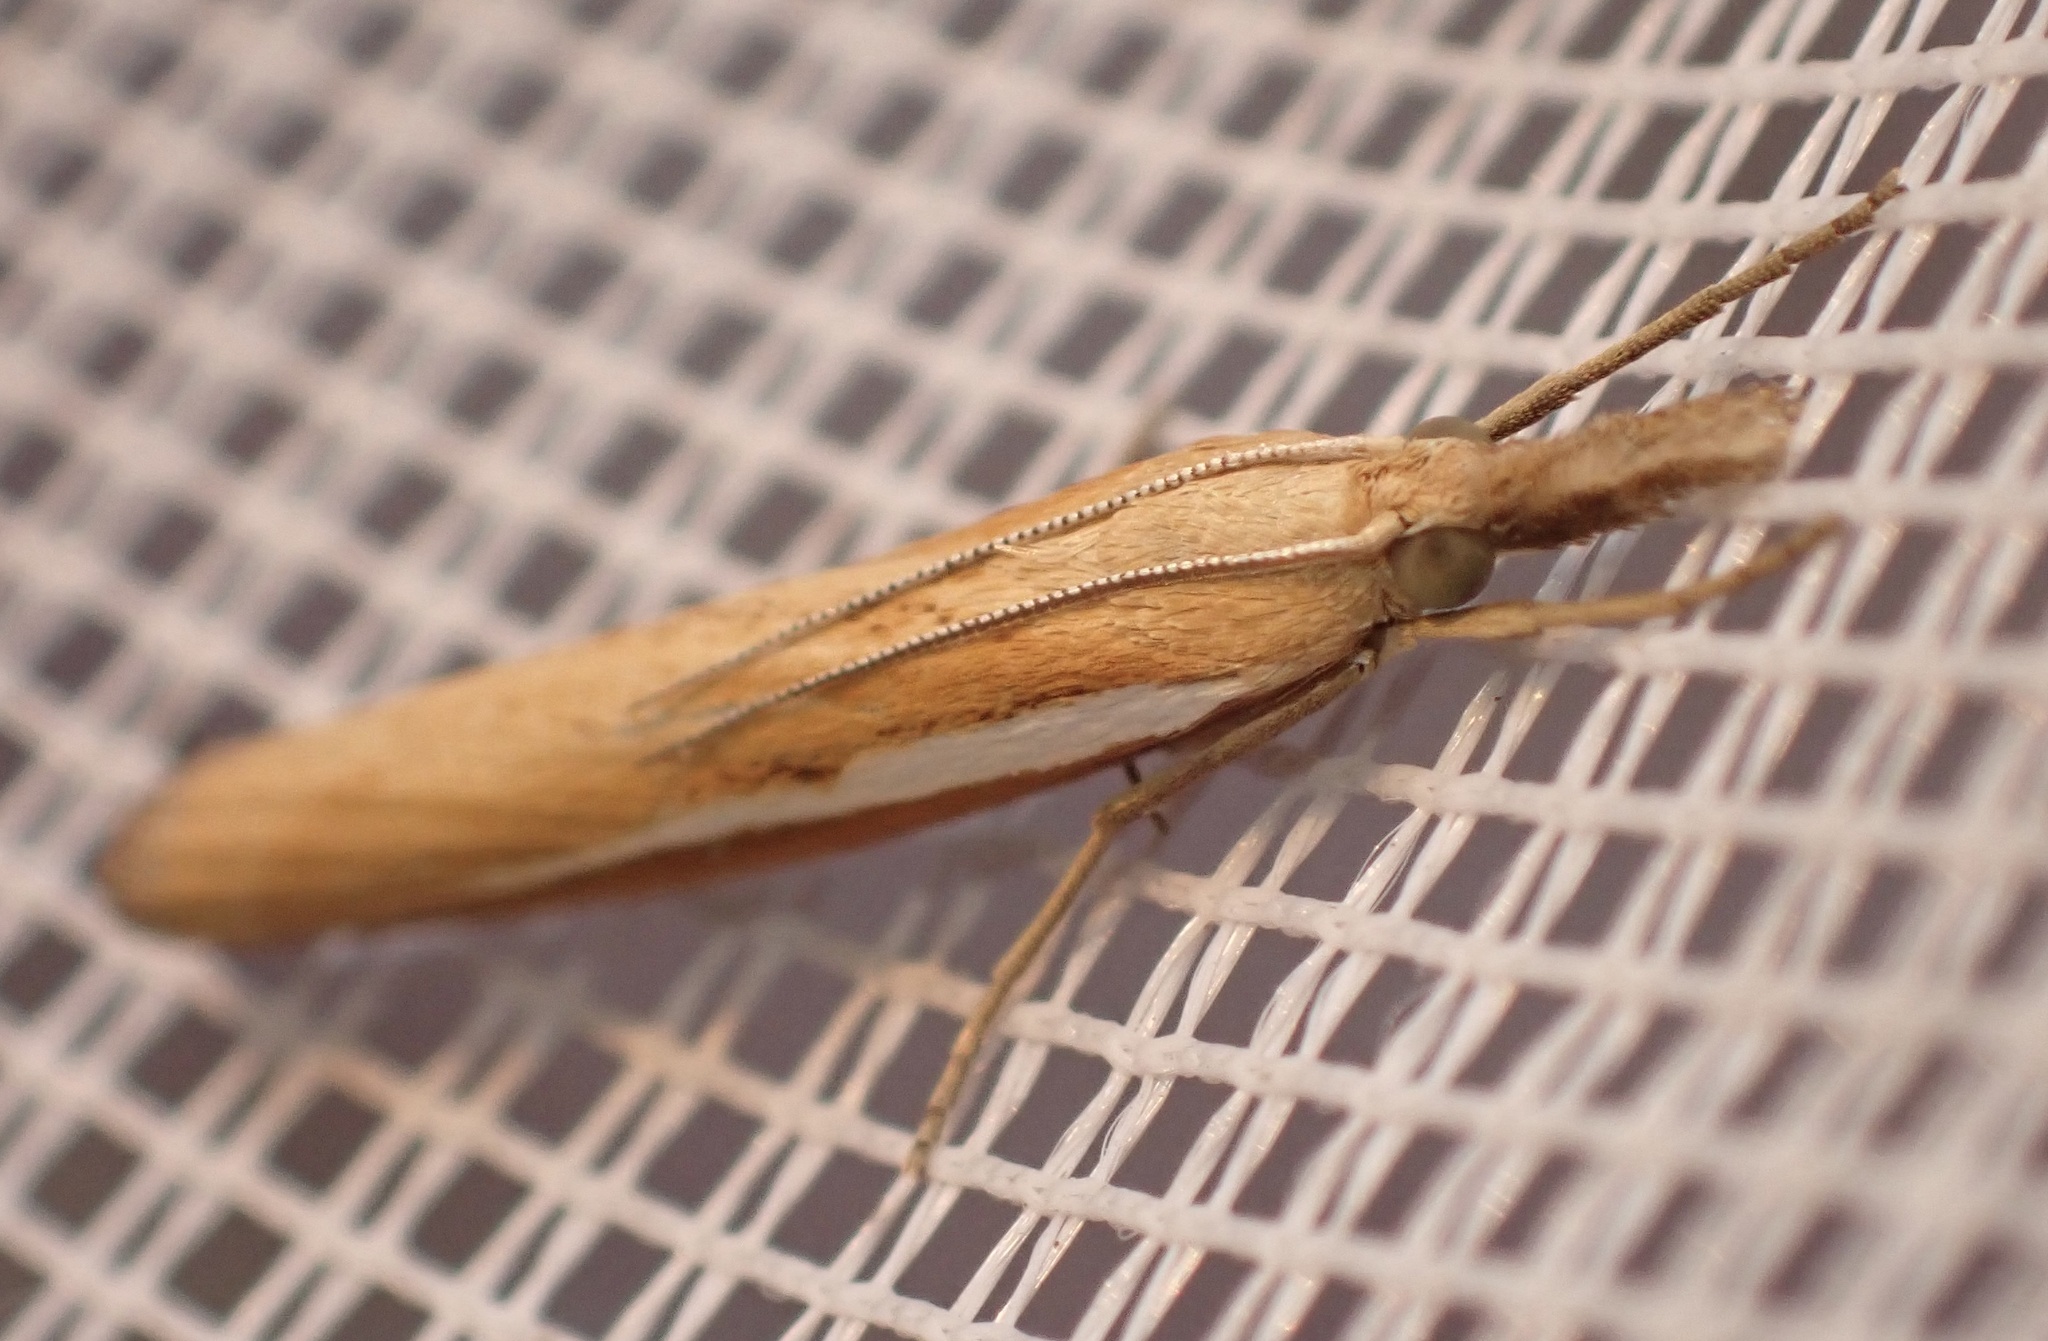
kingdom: Animalia
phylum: Arthropoda
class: Insecta
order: Lepidoptera
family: Crambidae
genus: Agriphila
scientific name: Agriphila tristellus
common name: Common grass-veneer
